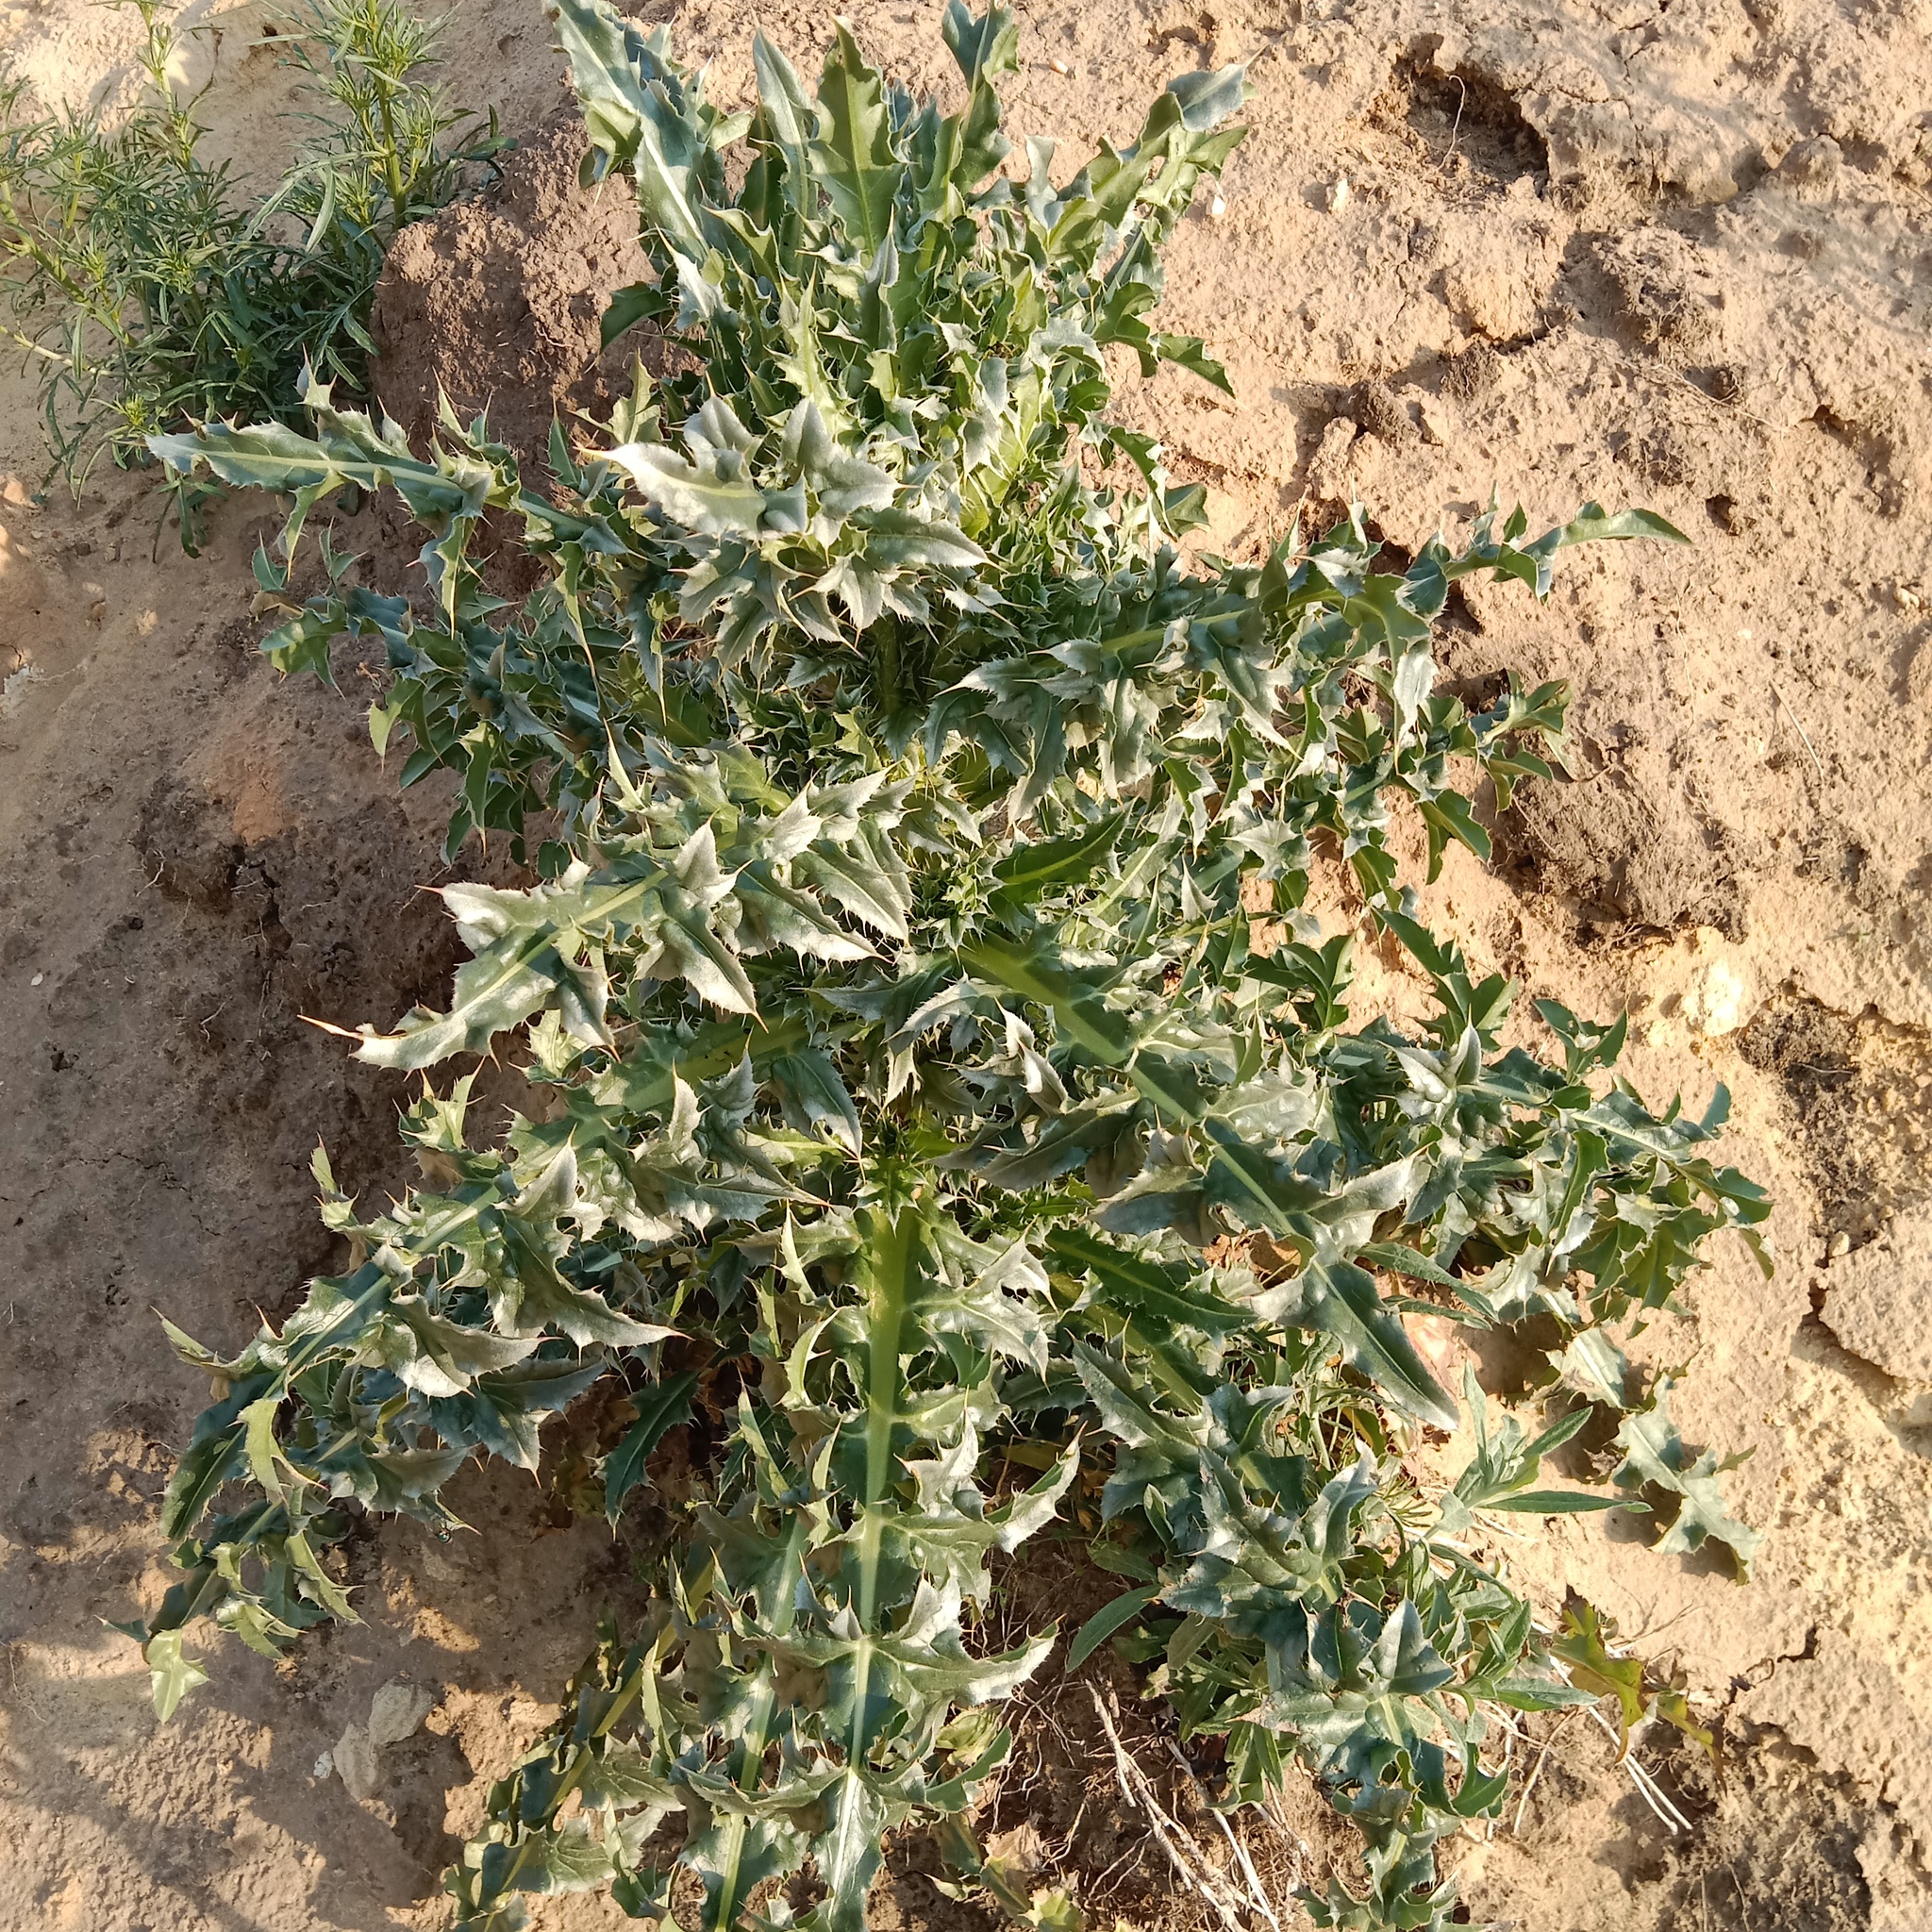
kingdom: Plantae
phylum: Tracheophyta
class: Magnoliopsida
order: Asterales
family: Asteraceae
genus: Carduus
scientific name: Carduus nutans
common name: Musk thistle
